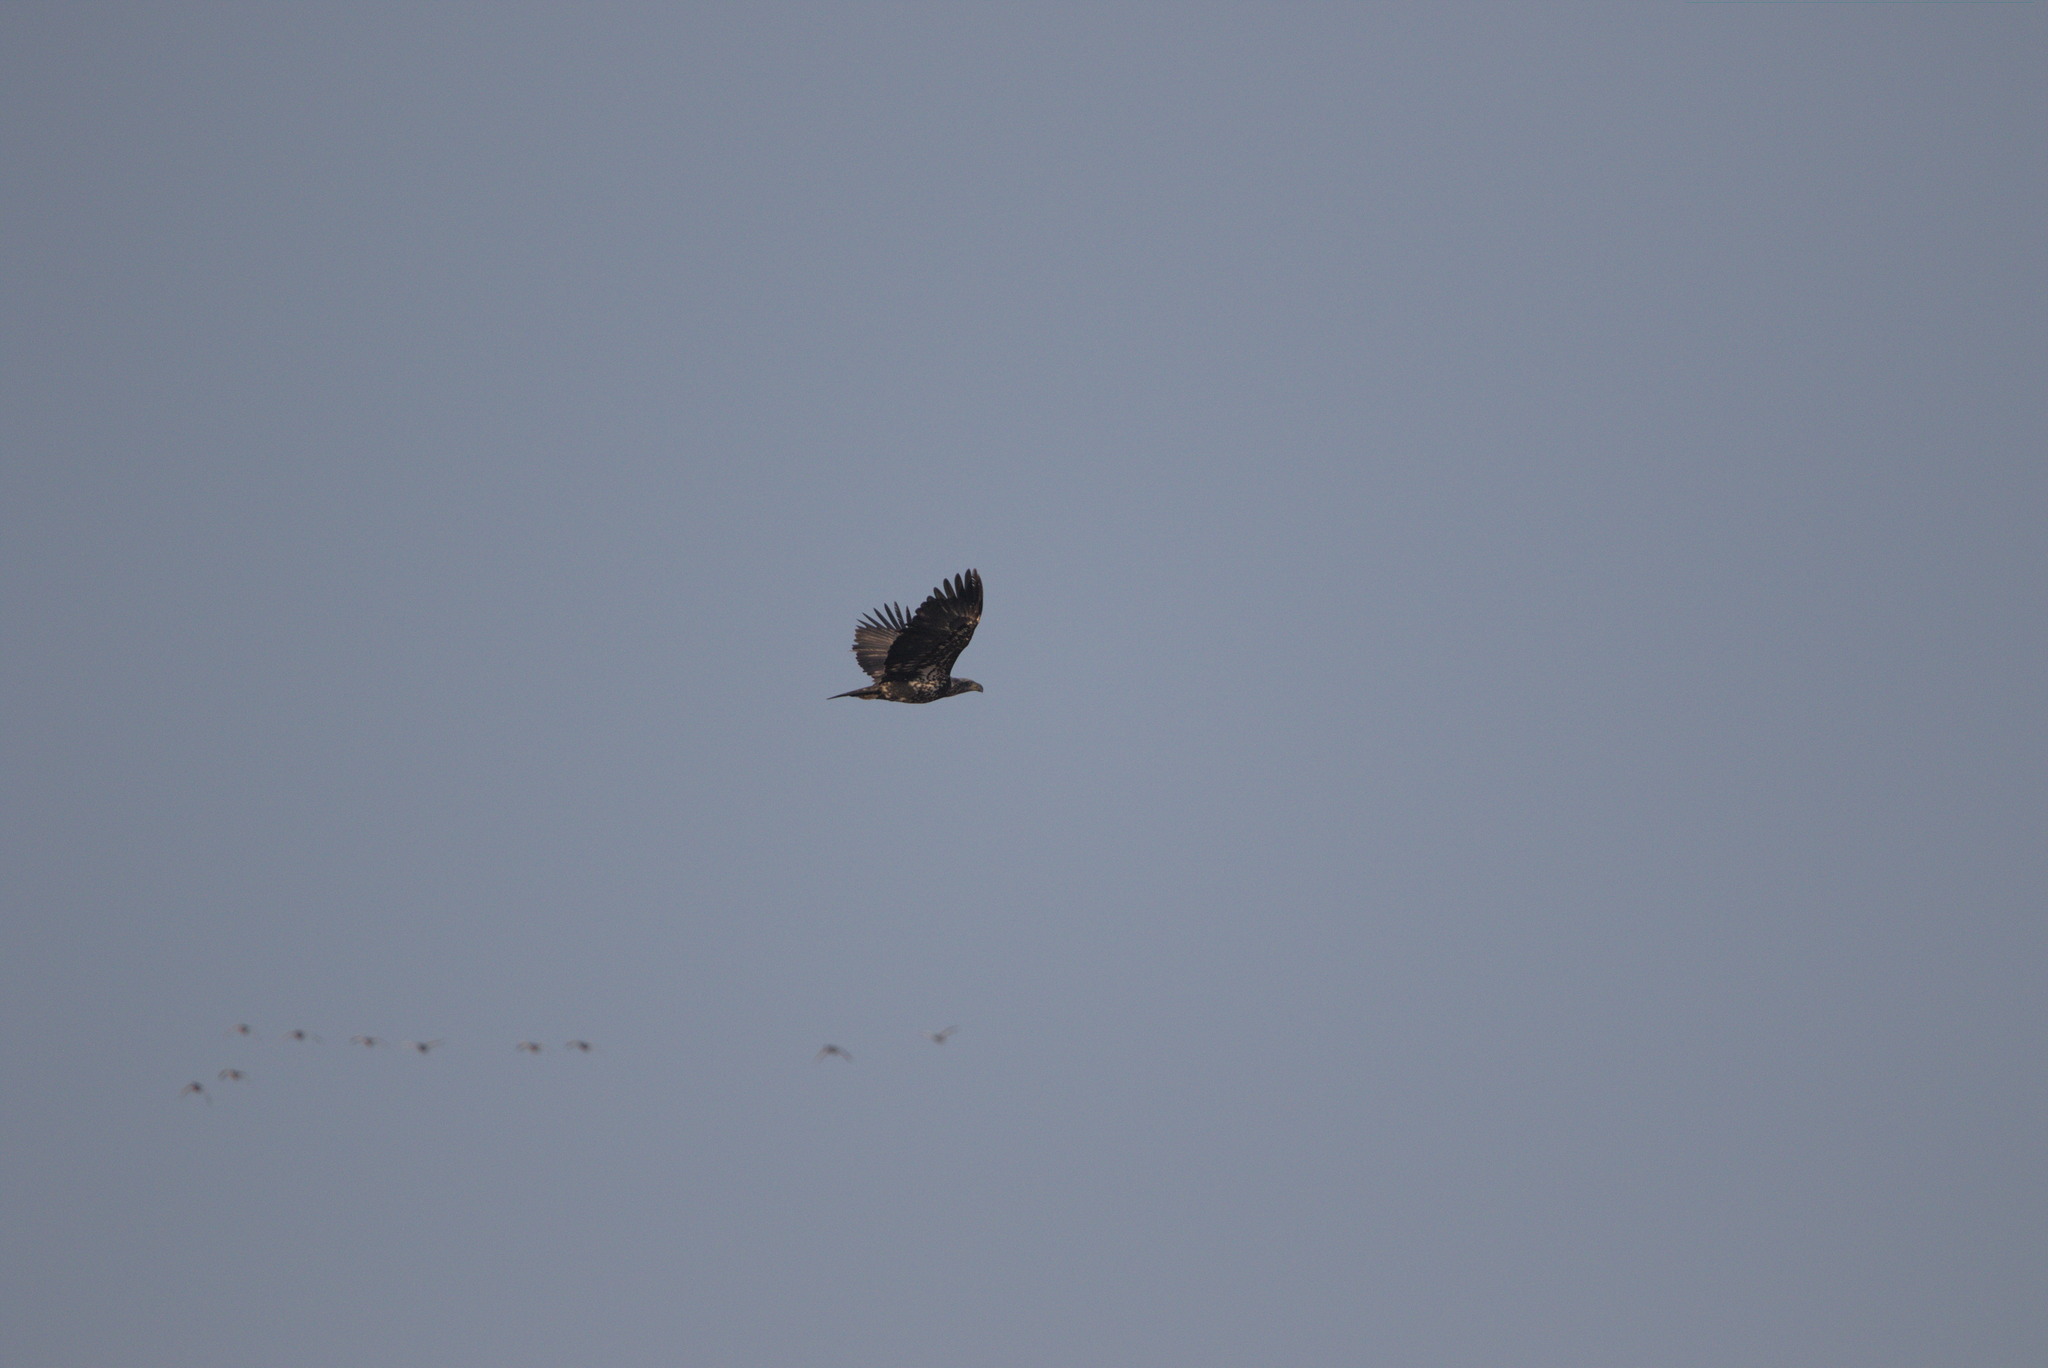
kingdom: Animalia
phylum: Chordata
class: Aves
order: Accipitriformes
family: Accipitridae
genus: Haliaeetus
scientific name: Haliaeetus leucocephalus
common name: Bald eagle
